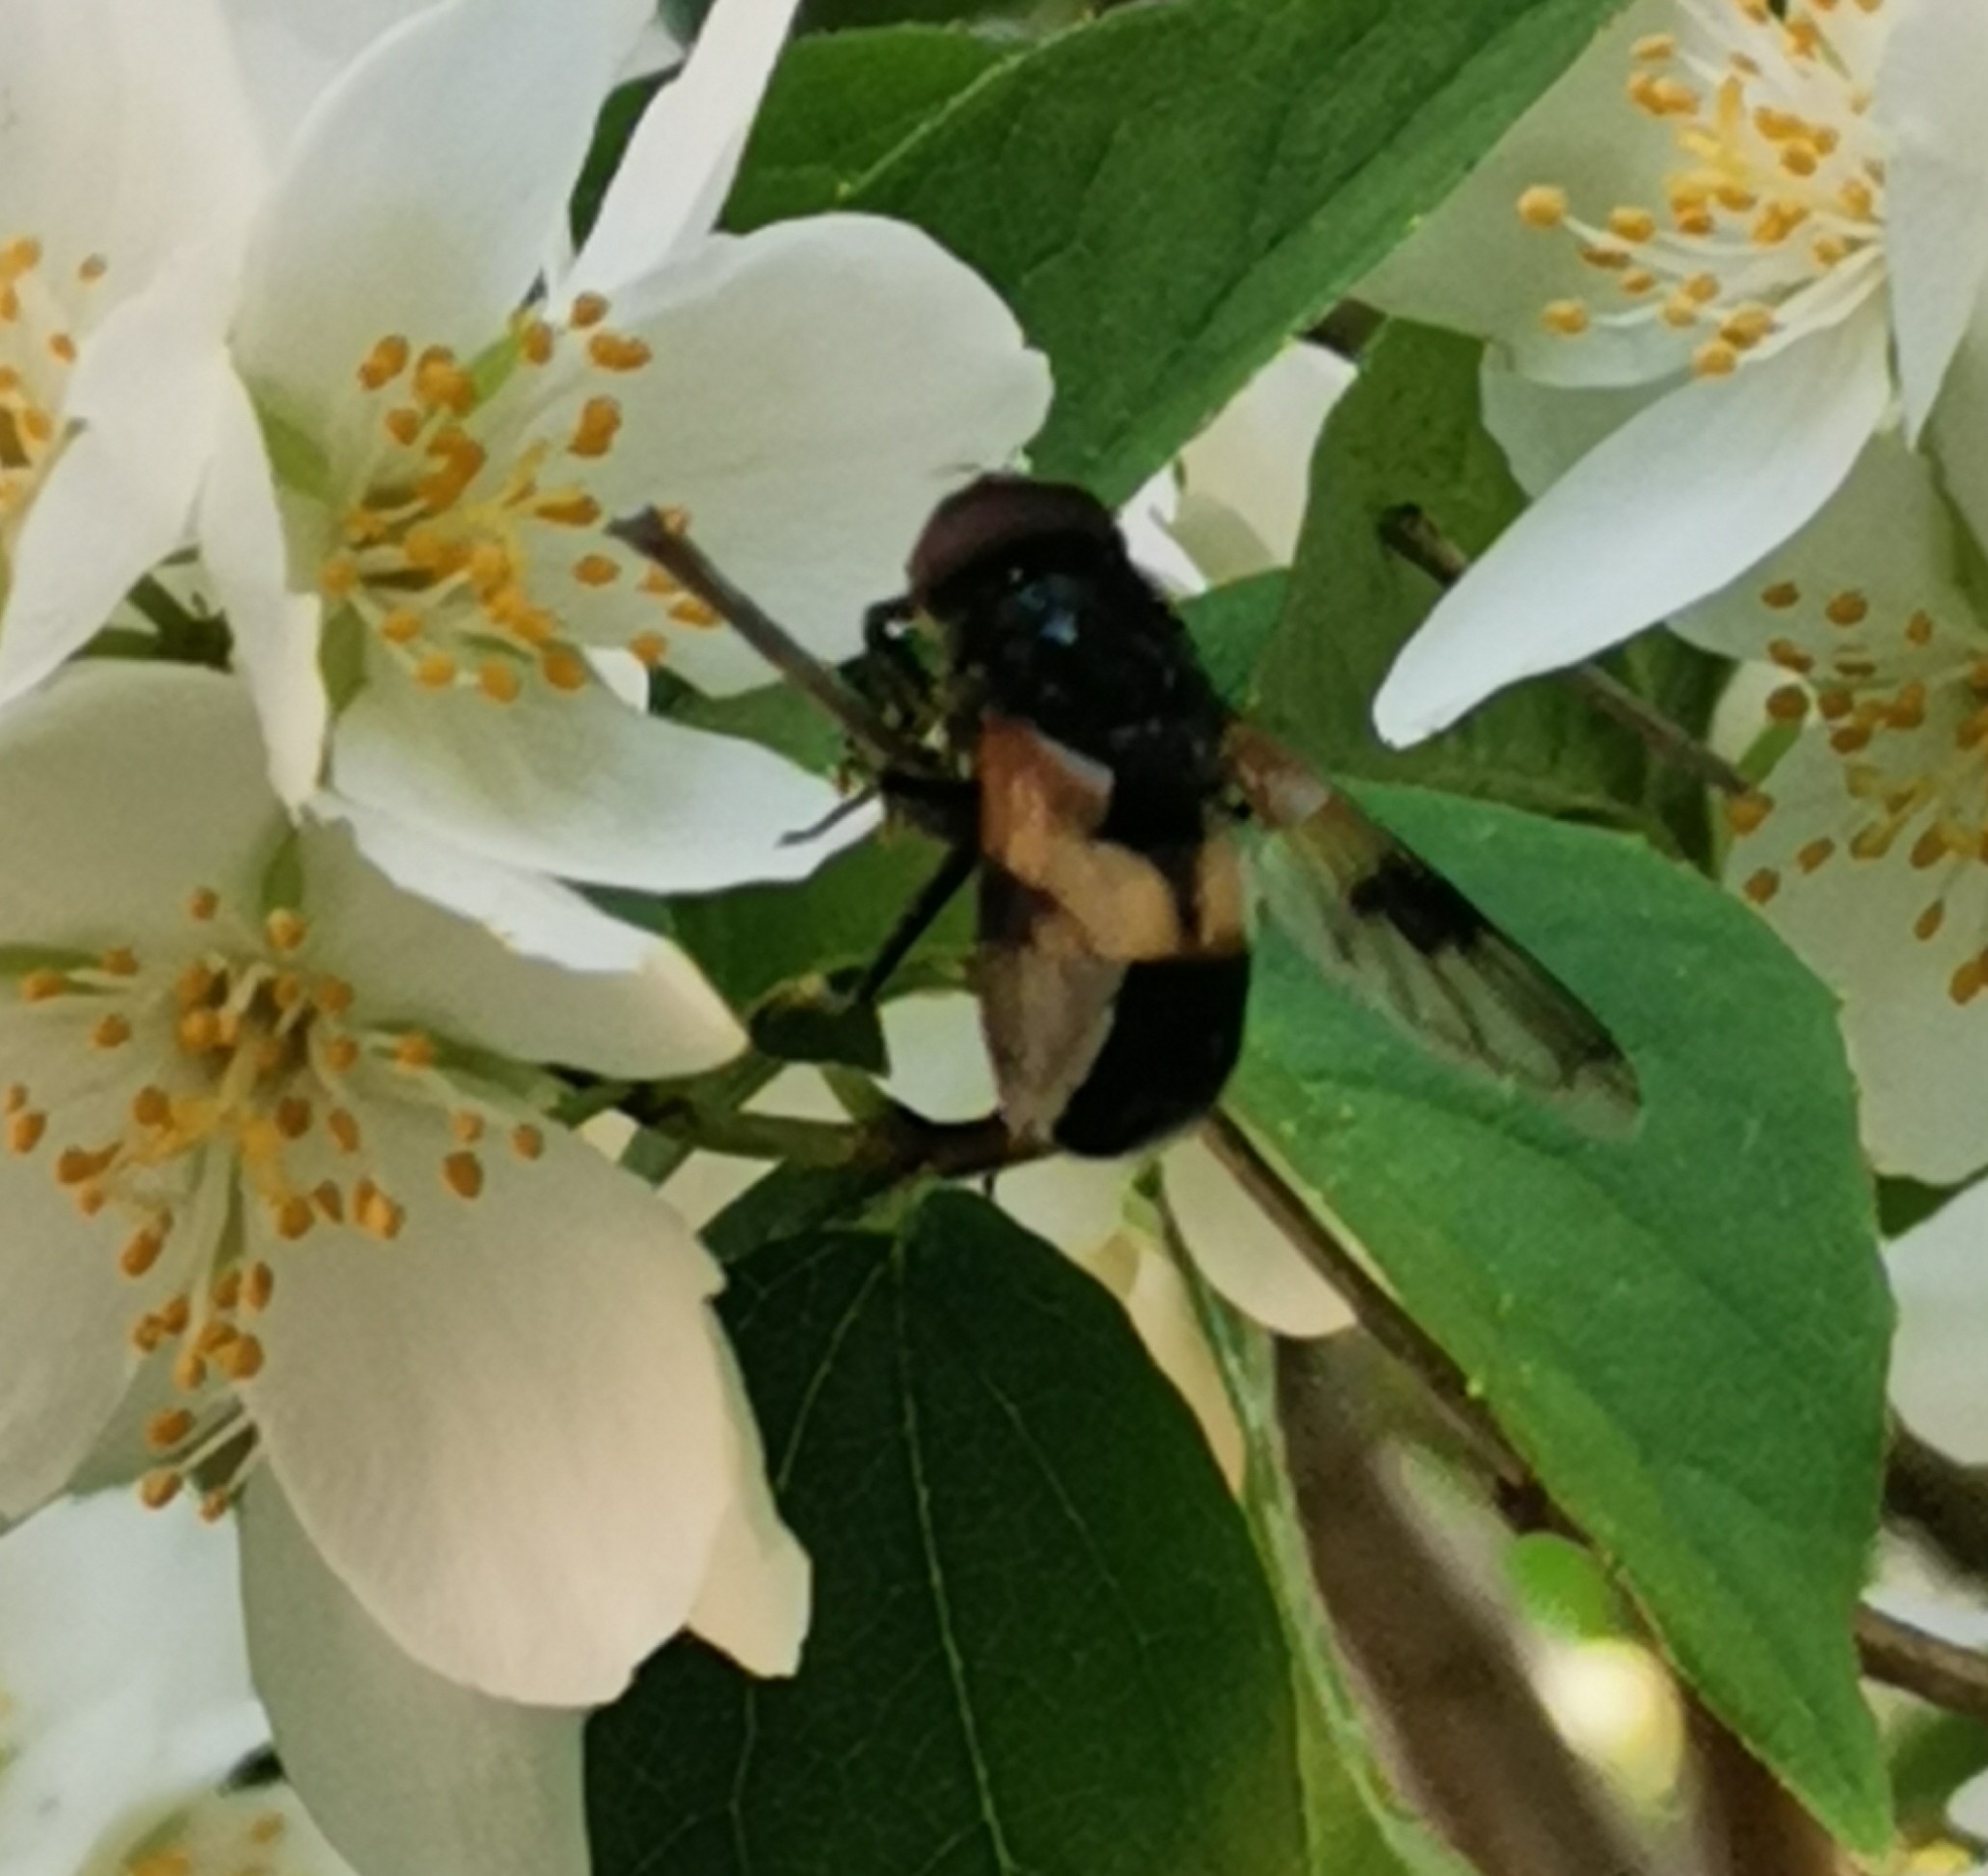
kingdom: Animalia
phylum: Arthropoda
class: Insecta
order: Diptera
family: Syrphidae
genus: Volucella
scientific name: Volucella pellucens
